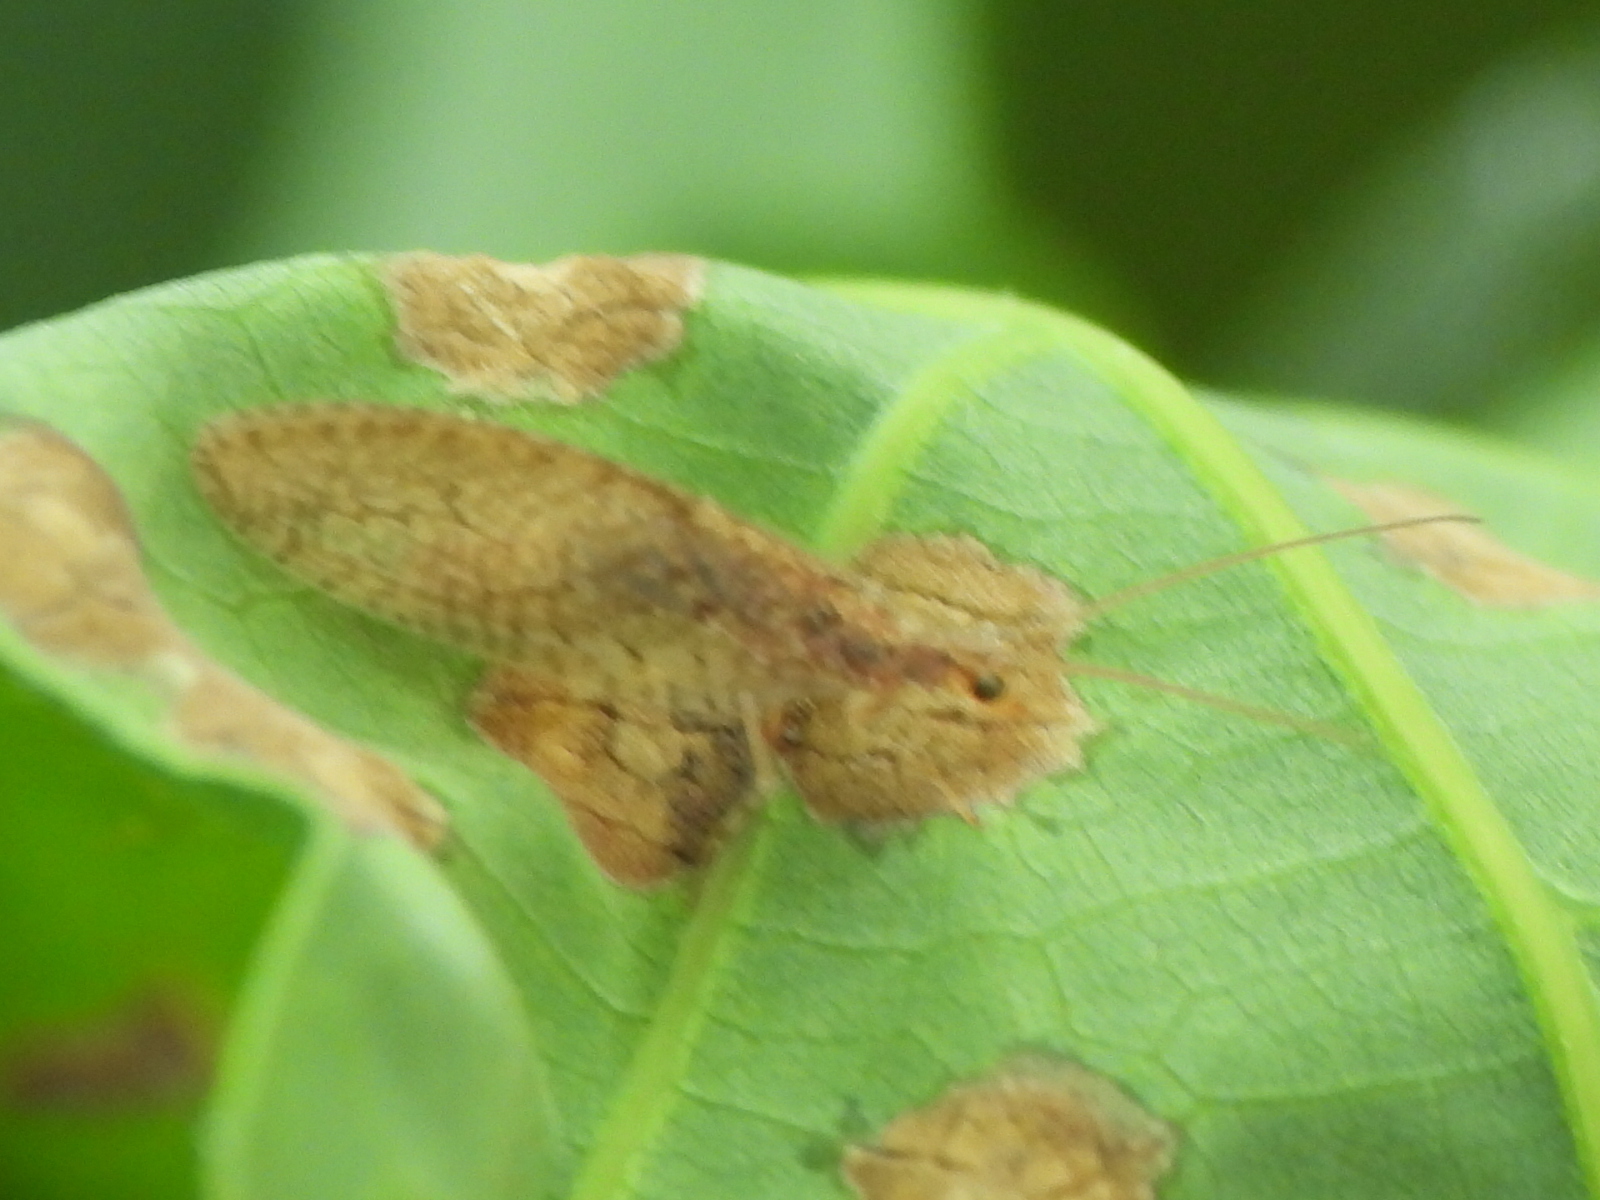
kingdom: Animalia
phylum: Arthropoda
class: Insecta
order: Neuroptera
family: Hemerobiidae
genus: Micromus
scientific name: Micromus posticus
